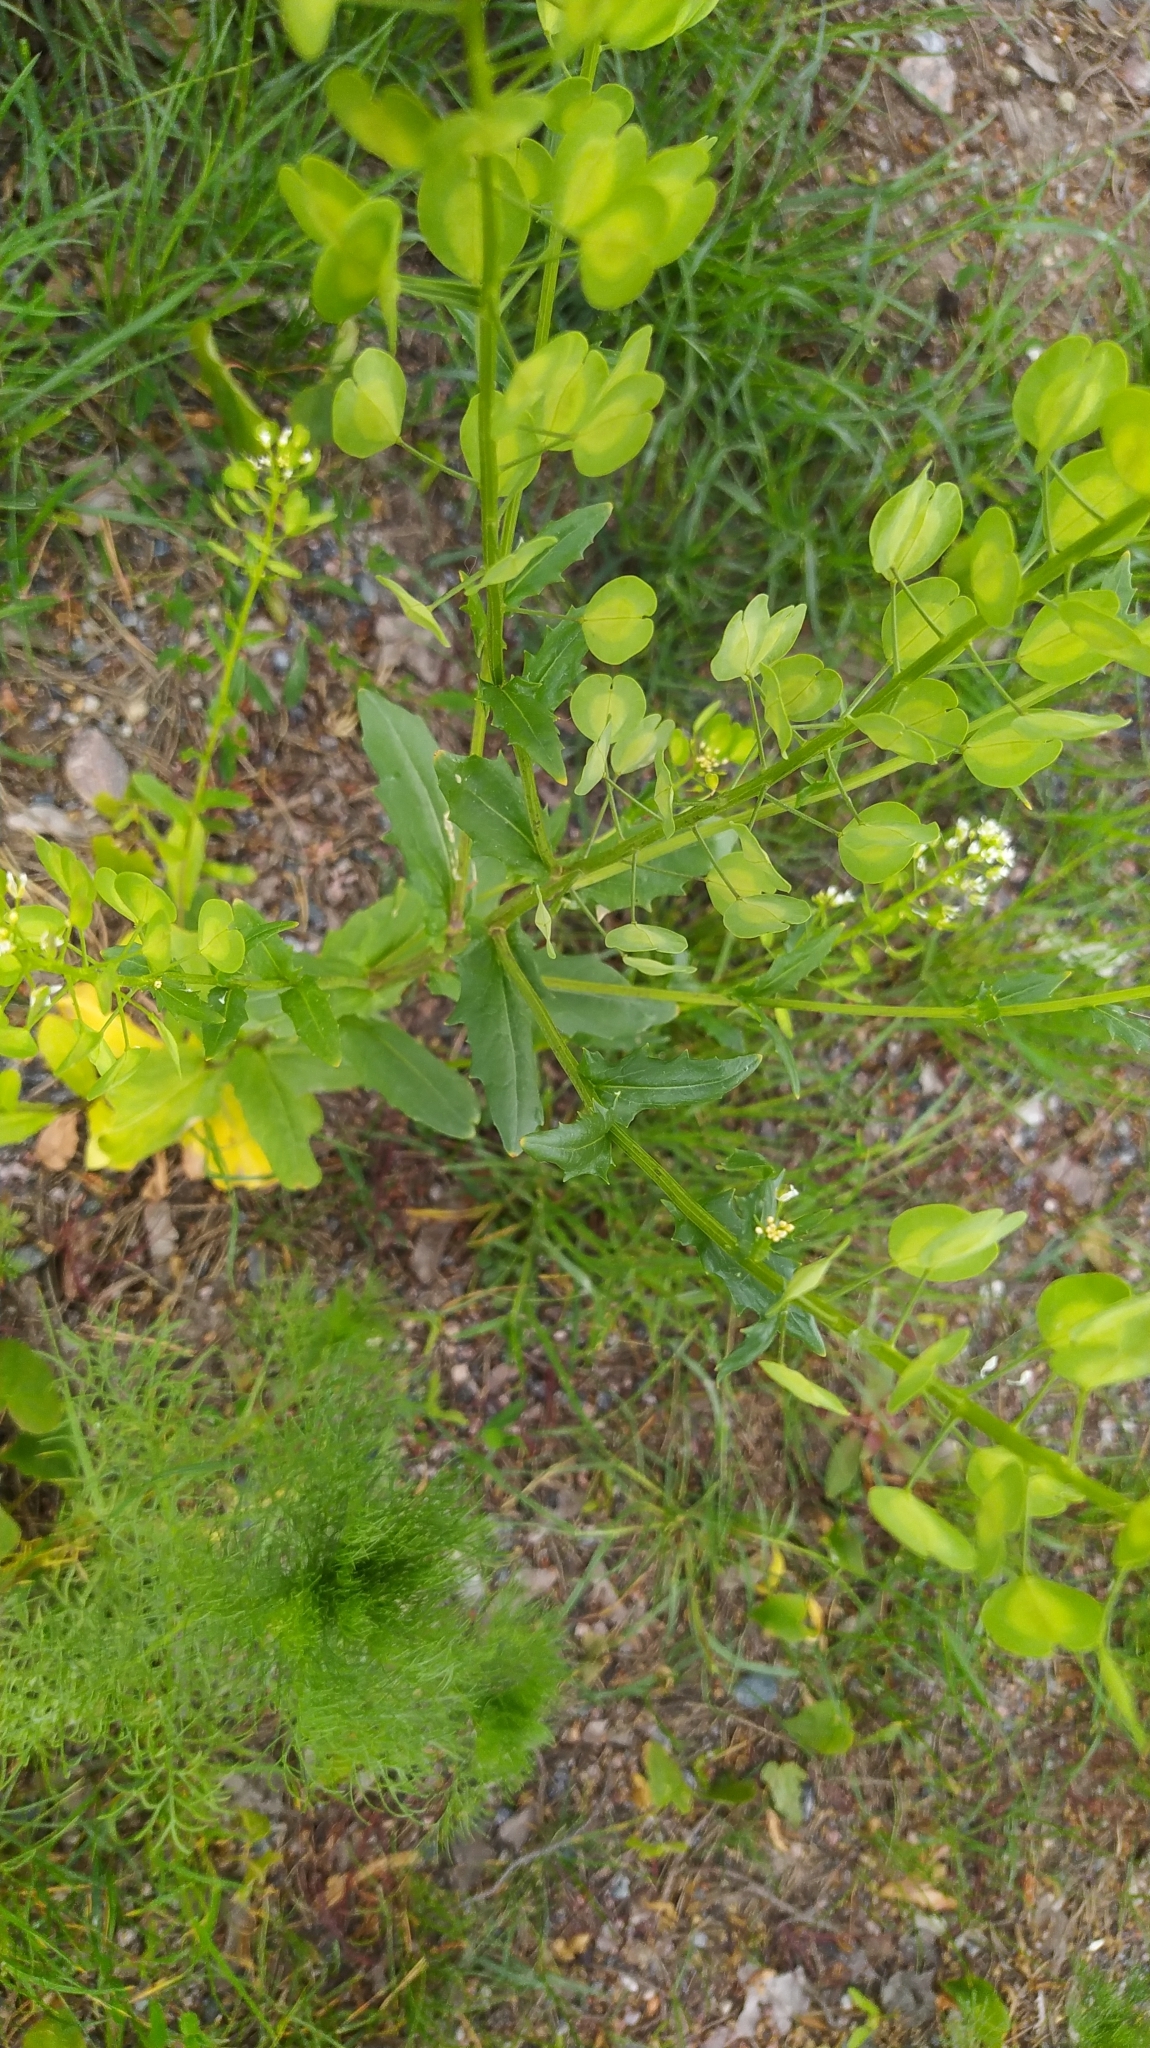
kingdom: Plantae
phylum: Tracheophyta
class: Magnoliopsida
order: Brassicales
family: Brassicaceae
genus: Thlaspi
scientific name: Thlaspi arvense
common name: Field pennycress
